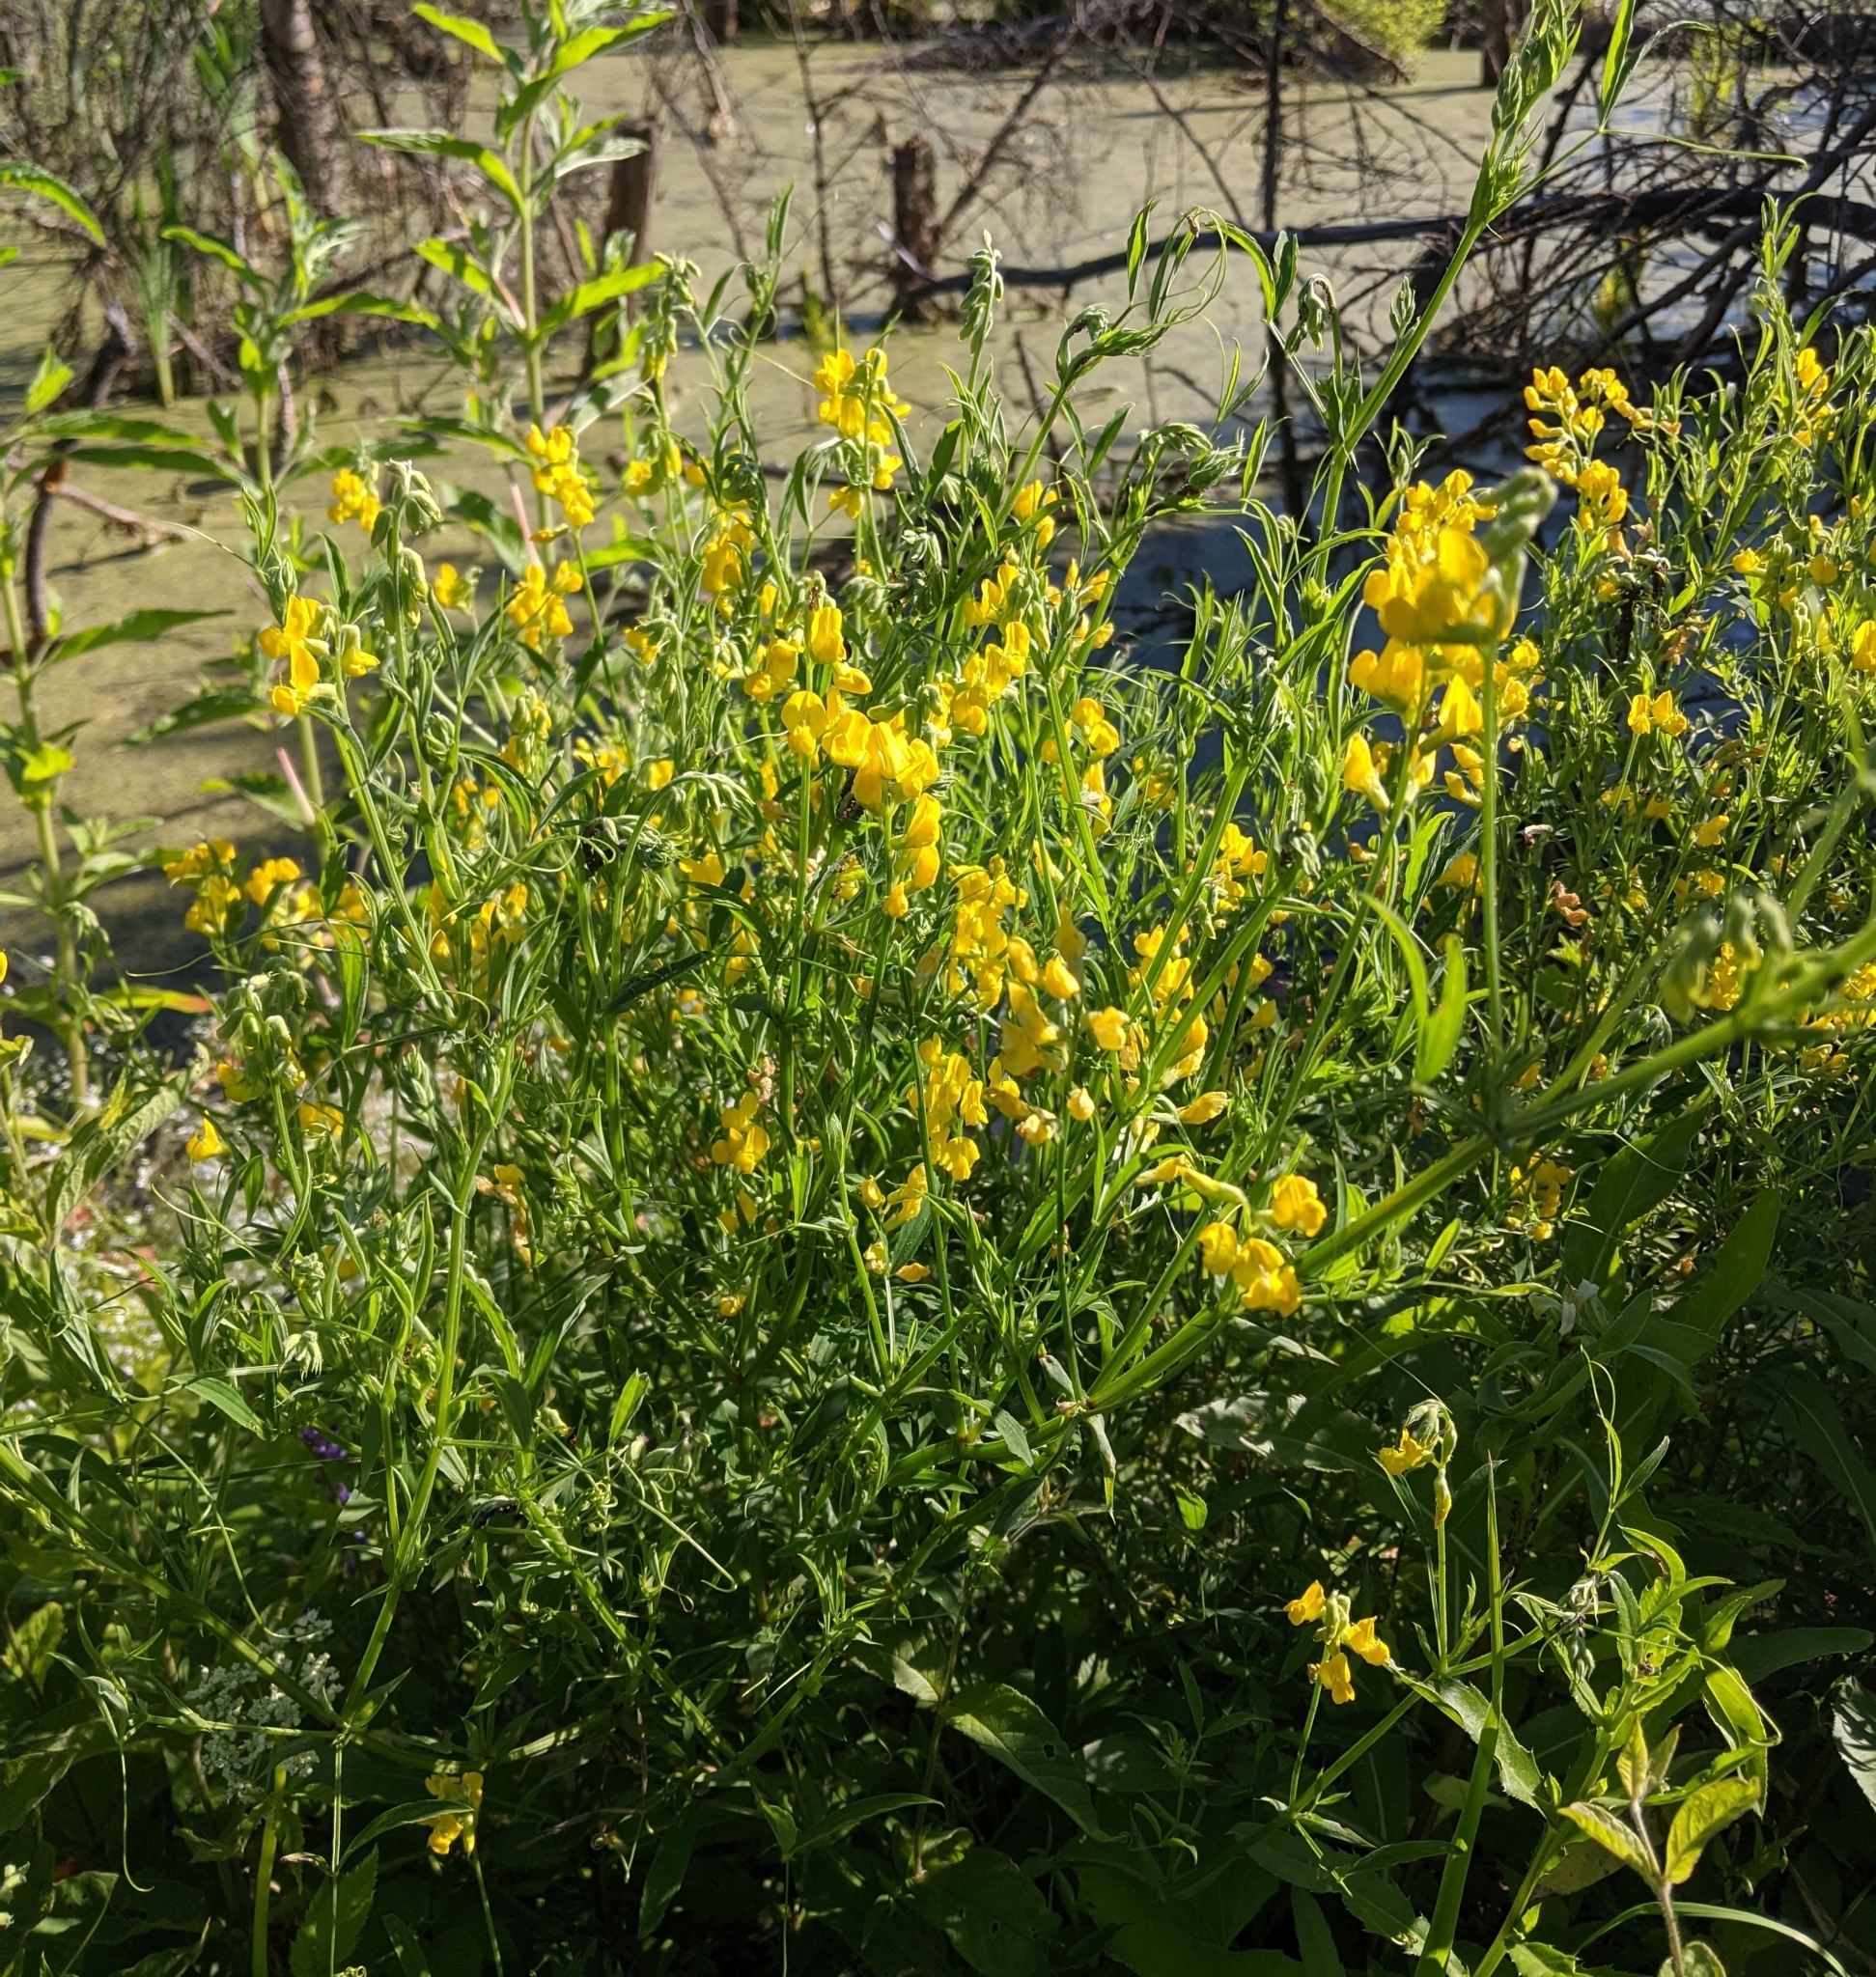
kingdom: Plantae
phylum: Tracheophyta
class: Magnoliopsida
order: Fabales
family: Fabaceae
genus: Lathyrus
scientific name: Lathyrus pratensis
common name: Meadow vetchling
